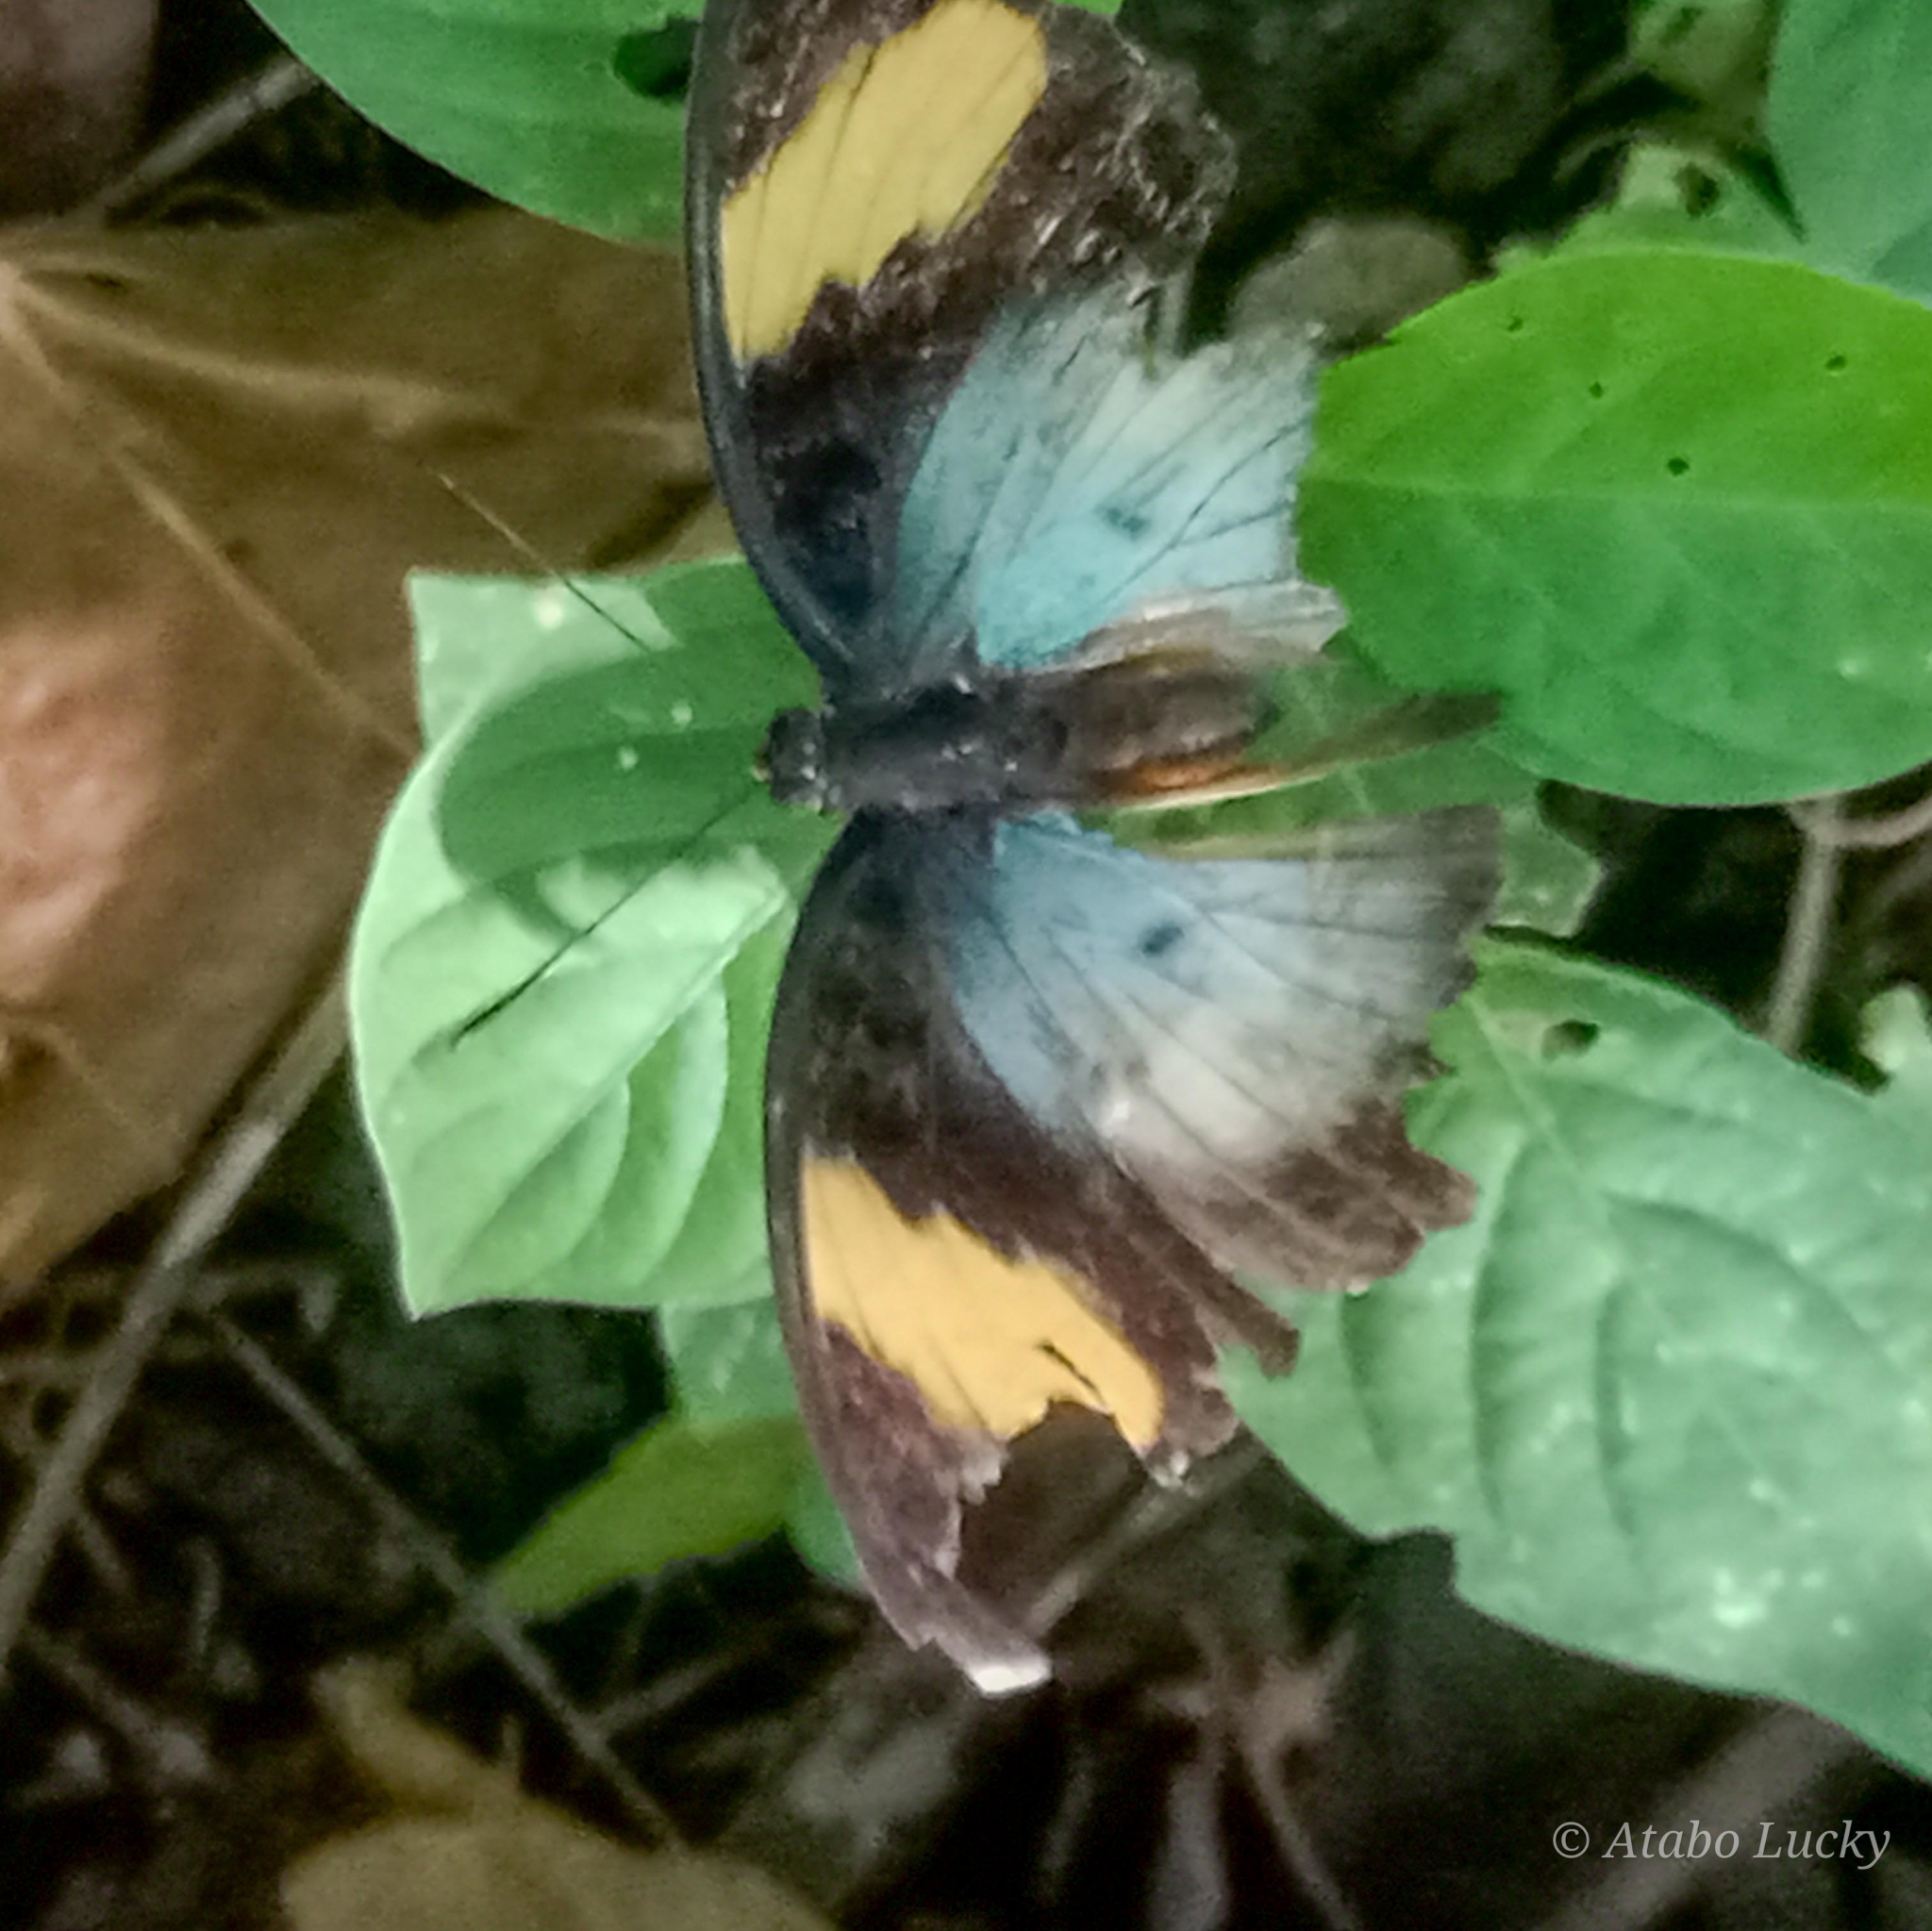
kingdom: Animalia
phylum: Arthropoda
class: Insecta
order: Lepidoptera
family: Nymphalidae
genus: Euphaedra
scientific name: Euphaedra ceres
